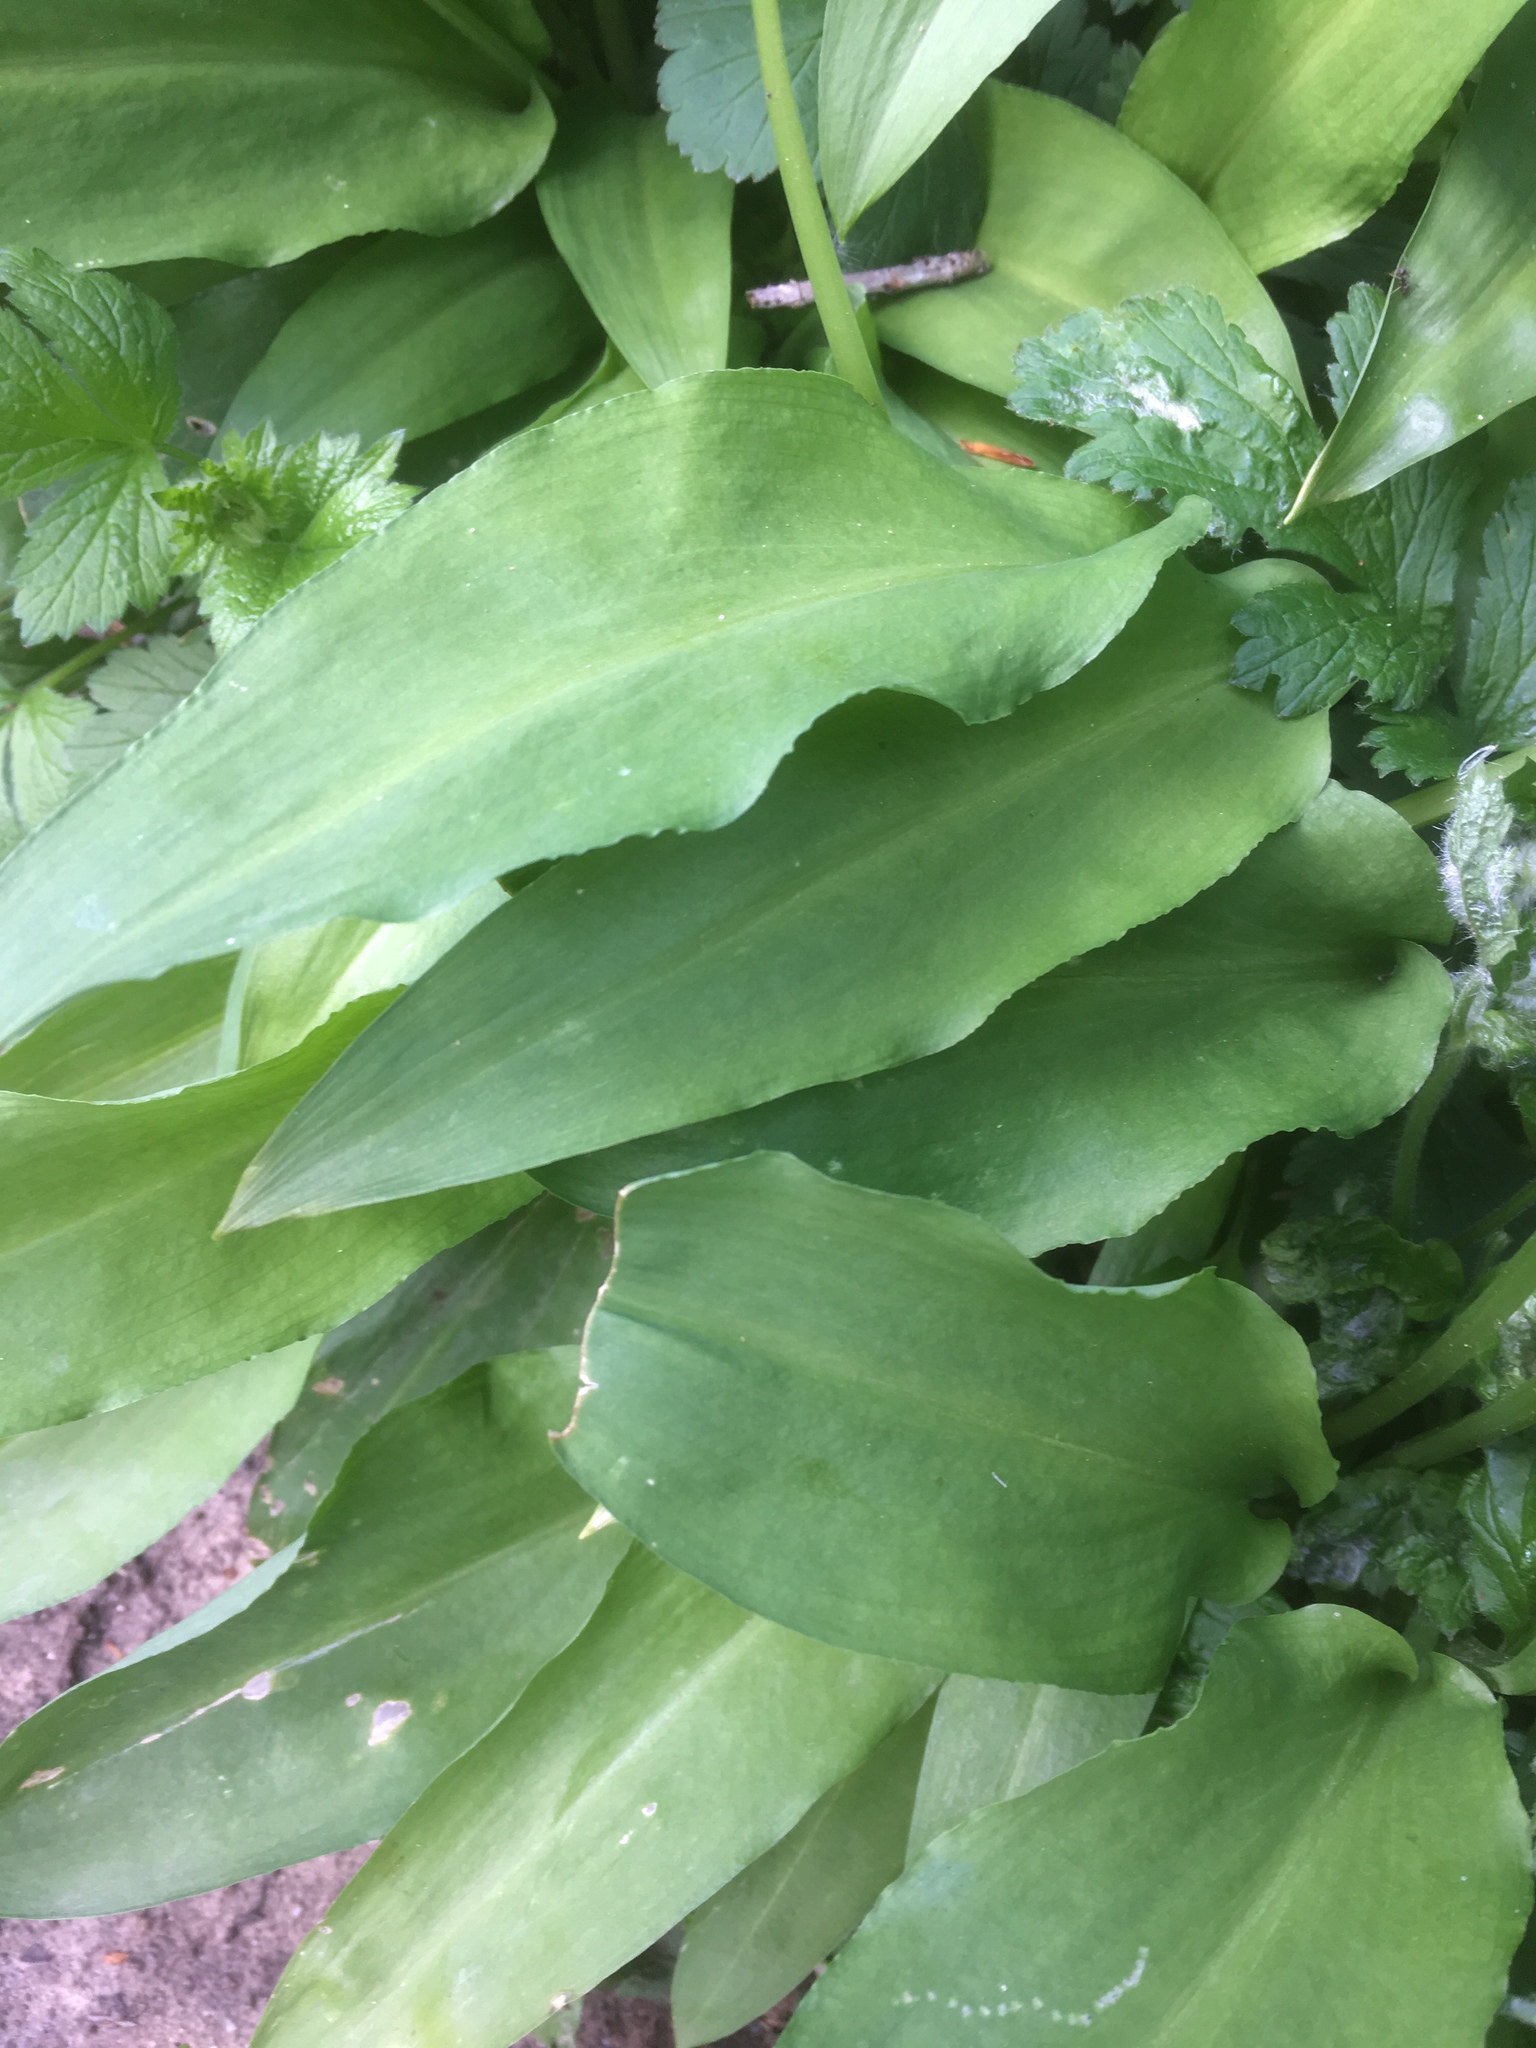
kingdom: Plantae
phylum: Tracheophyta
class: Liliopsida
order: Asparagales
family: Amaryllidaceae
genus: Allium
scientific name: Allium ursinum
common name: Ramsons
